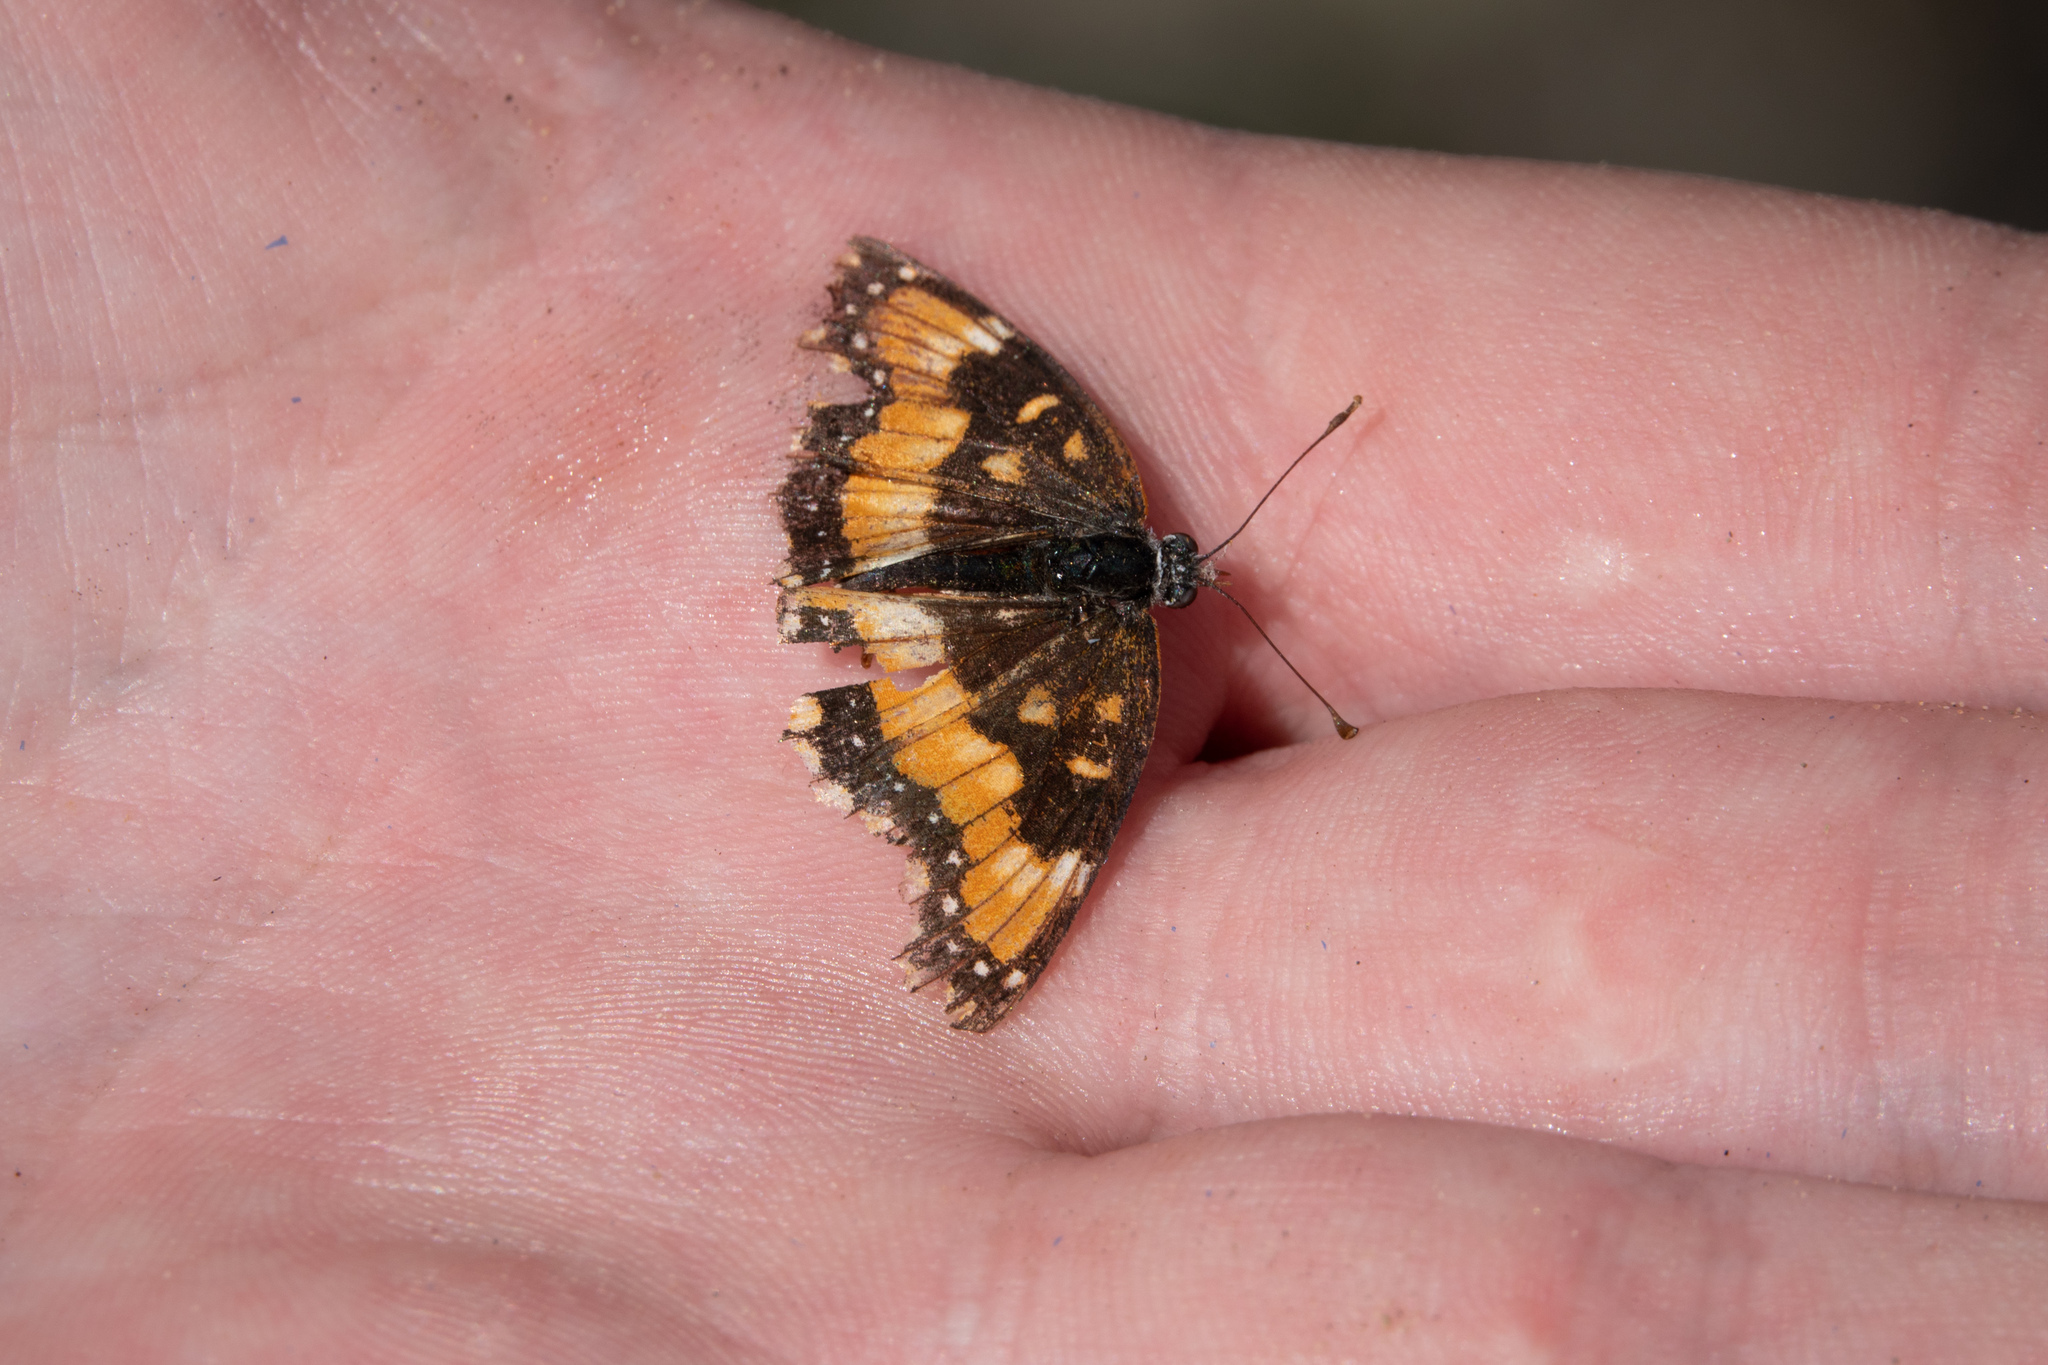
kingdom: Animalia
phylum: Arthropoda
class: Insecta
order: Lepidoptera
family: Nymphalidae
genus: Chlosyne
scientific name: Chlosyne californica
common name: California patch
